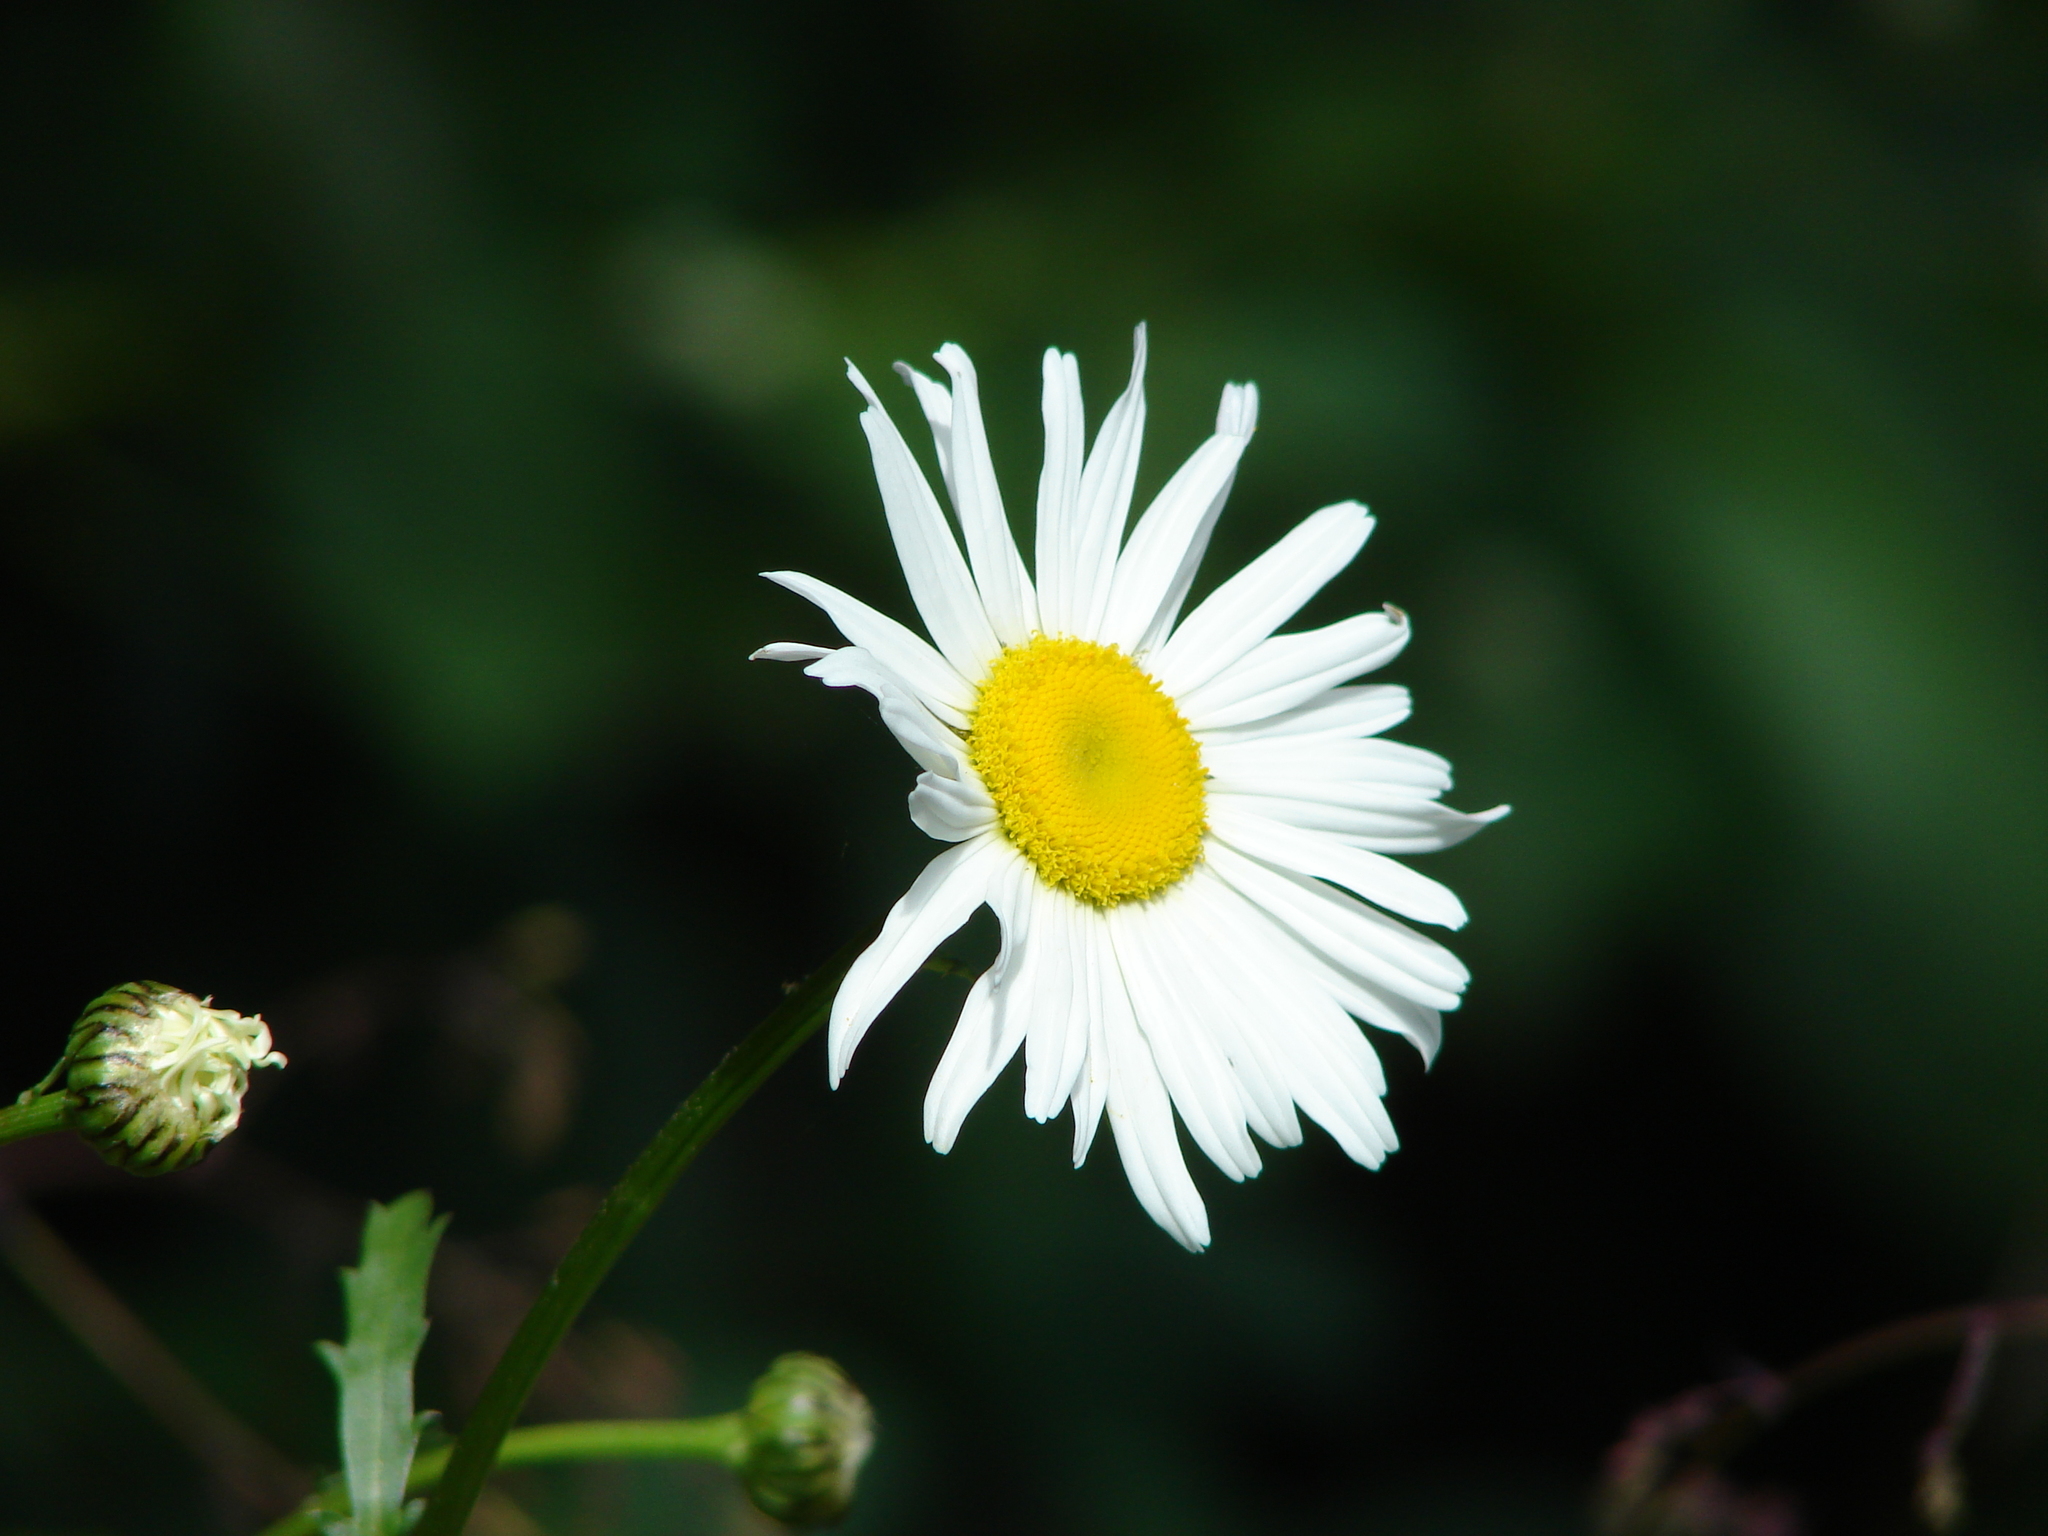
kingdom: Plantae
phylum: Tracheophyta
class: Magnoliopsida
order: Asterales
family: Asteraceae
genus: Leucanthemum
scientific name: Leucanthemum vulgare
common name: Oxeye daisy
